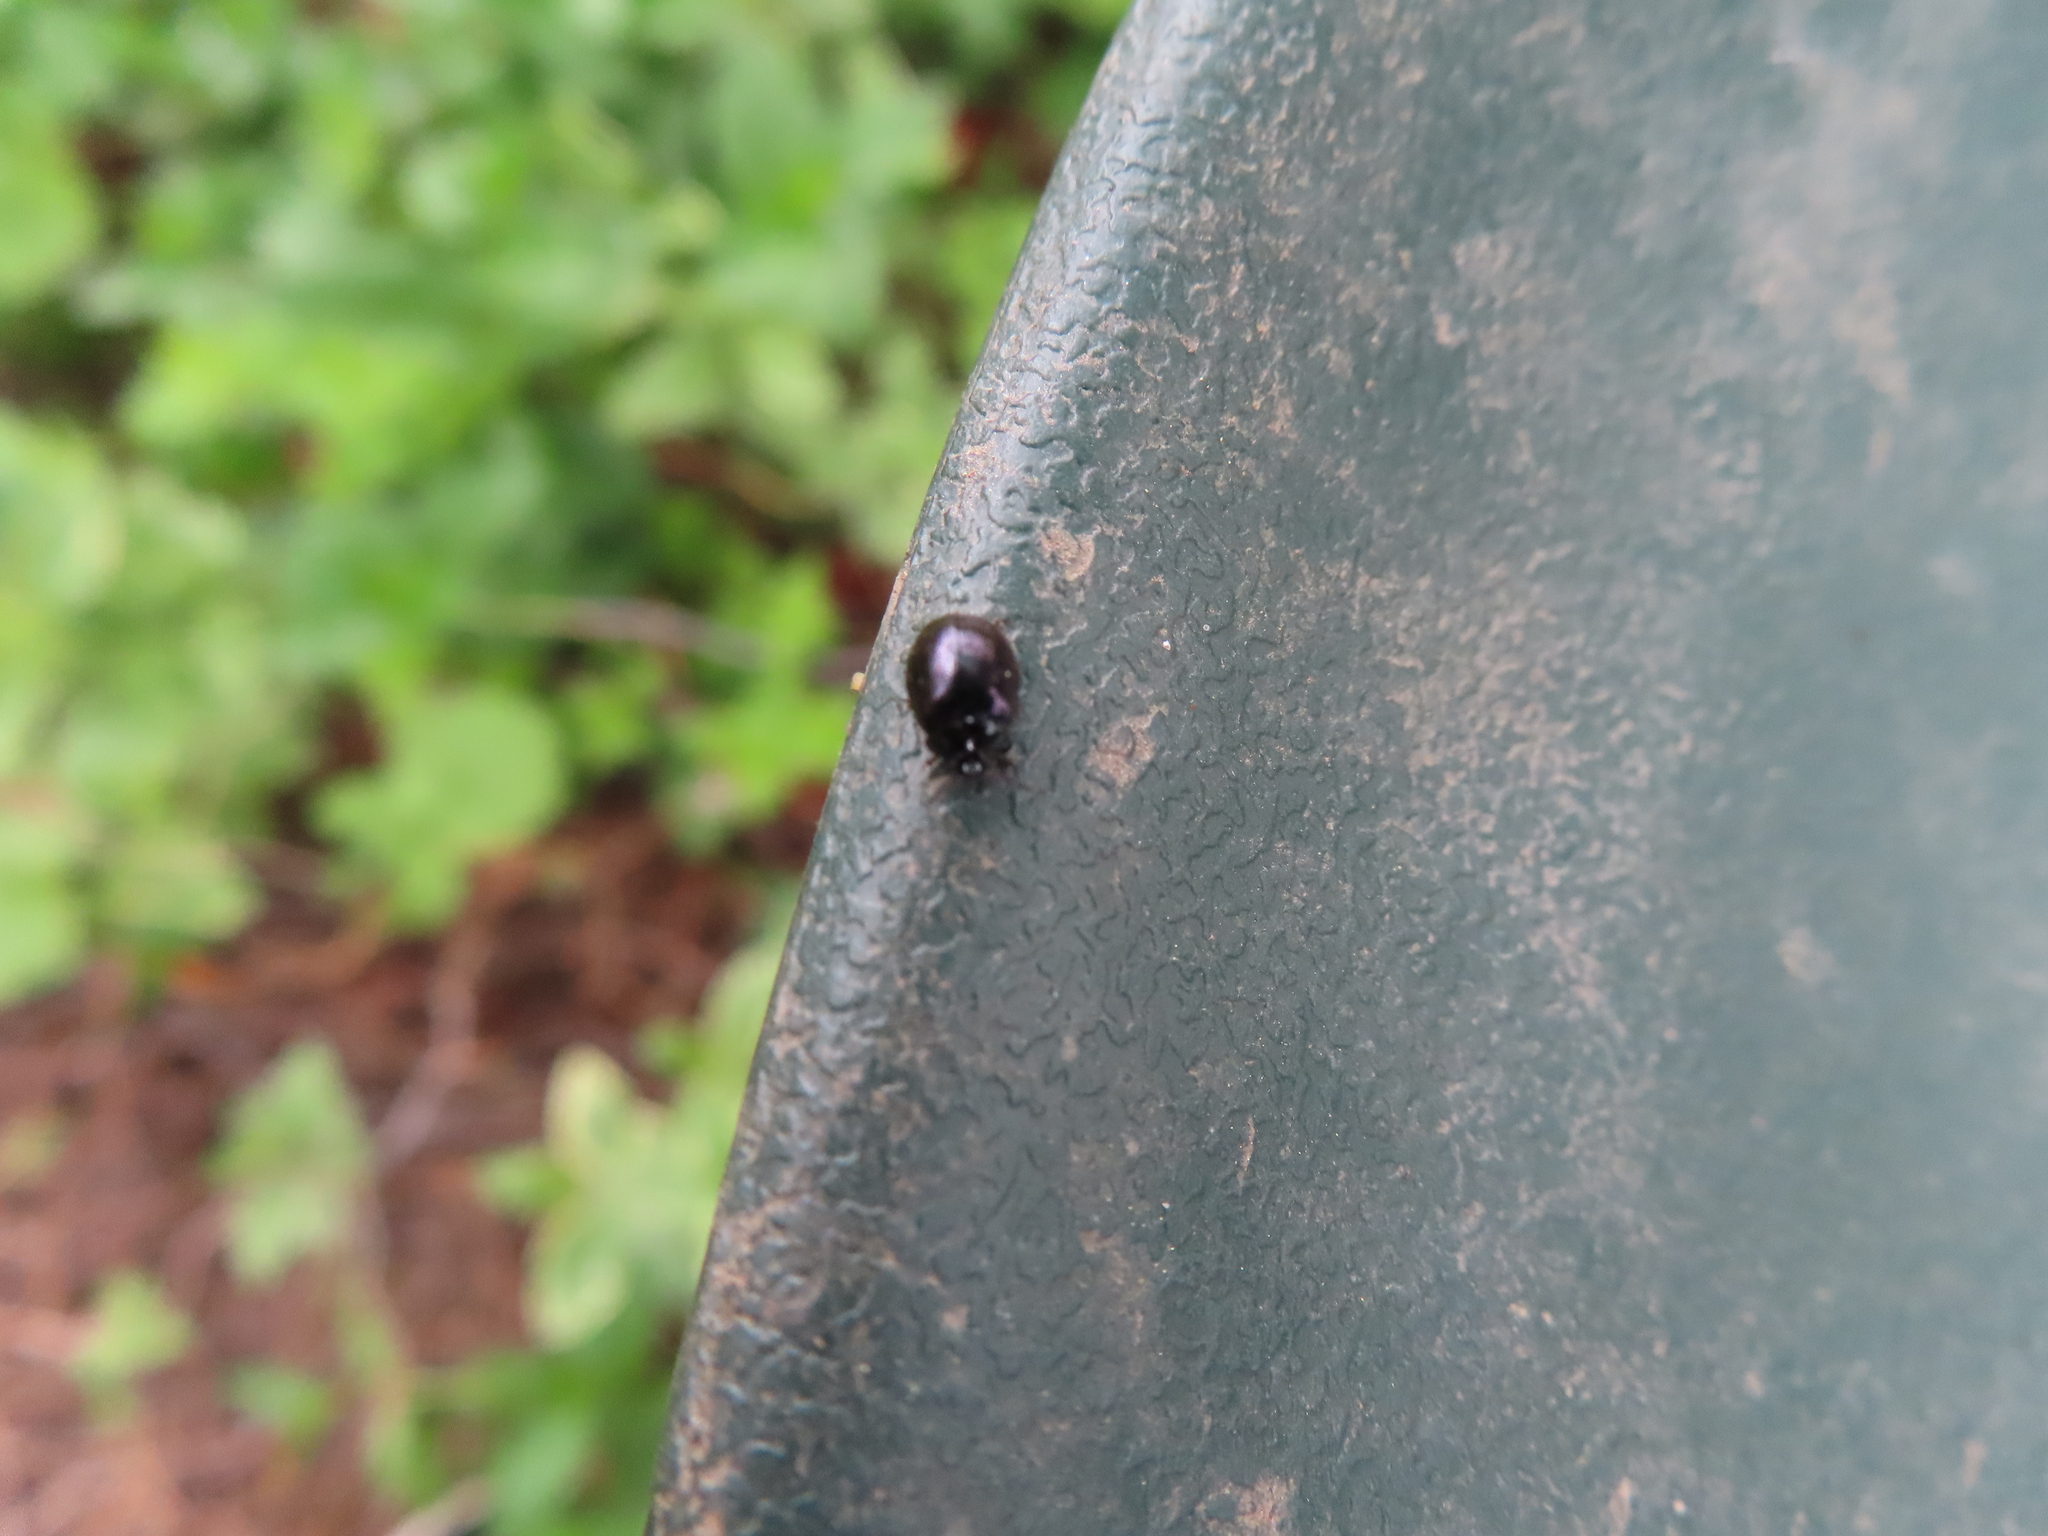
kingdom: Animalia
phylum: Arthropoda
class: Insecta
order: Coleoptera
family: Chrysomelidae
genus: Plagiodera
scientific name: Plagiodera versicolora
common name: Imported willow leaf beetle
